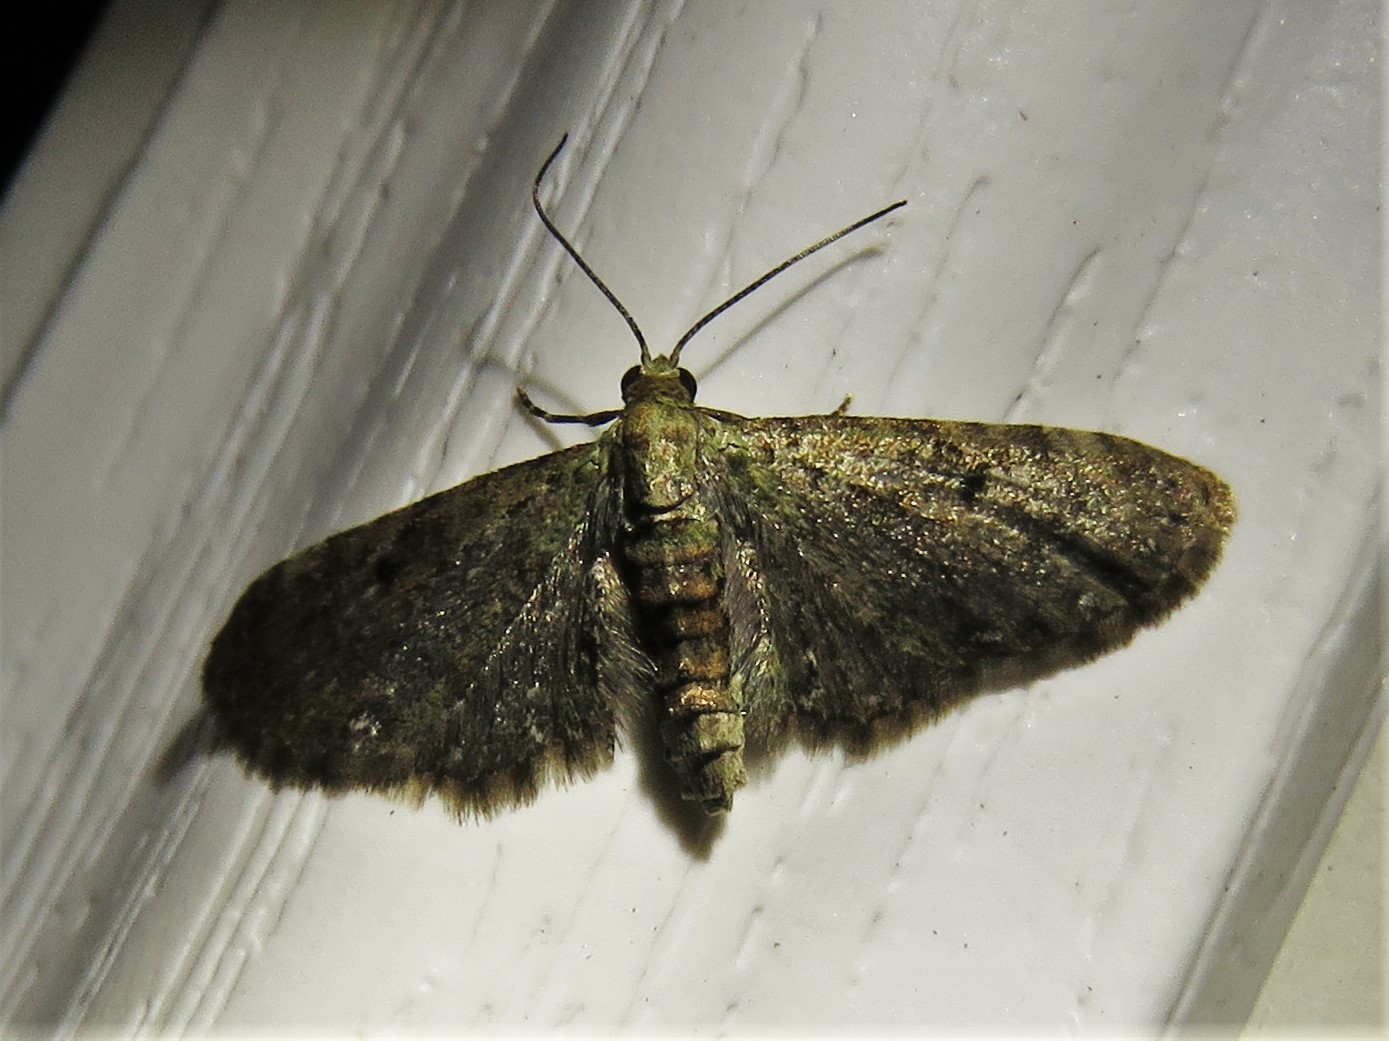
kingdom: Animalia
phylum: Arthropoda
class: Insecta
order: Lepidoptera
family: Geometridae
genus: Eupithecia
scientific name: Eupithecia miserulata
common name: Common eupithecia
